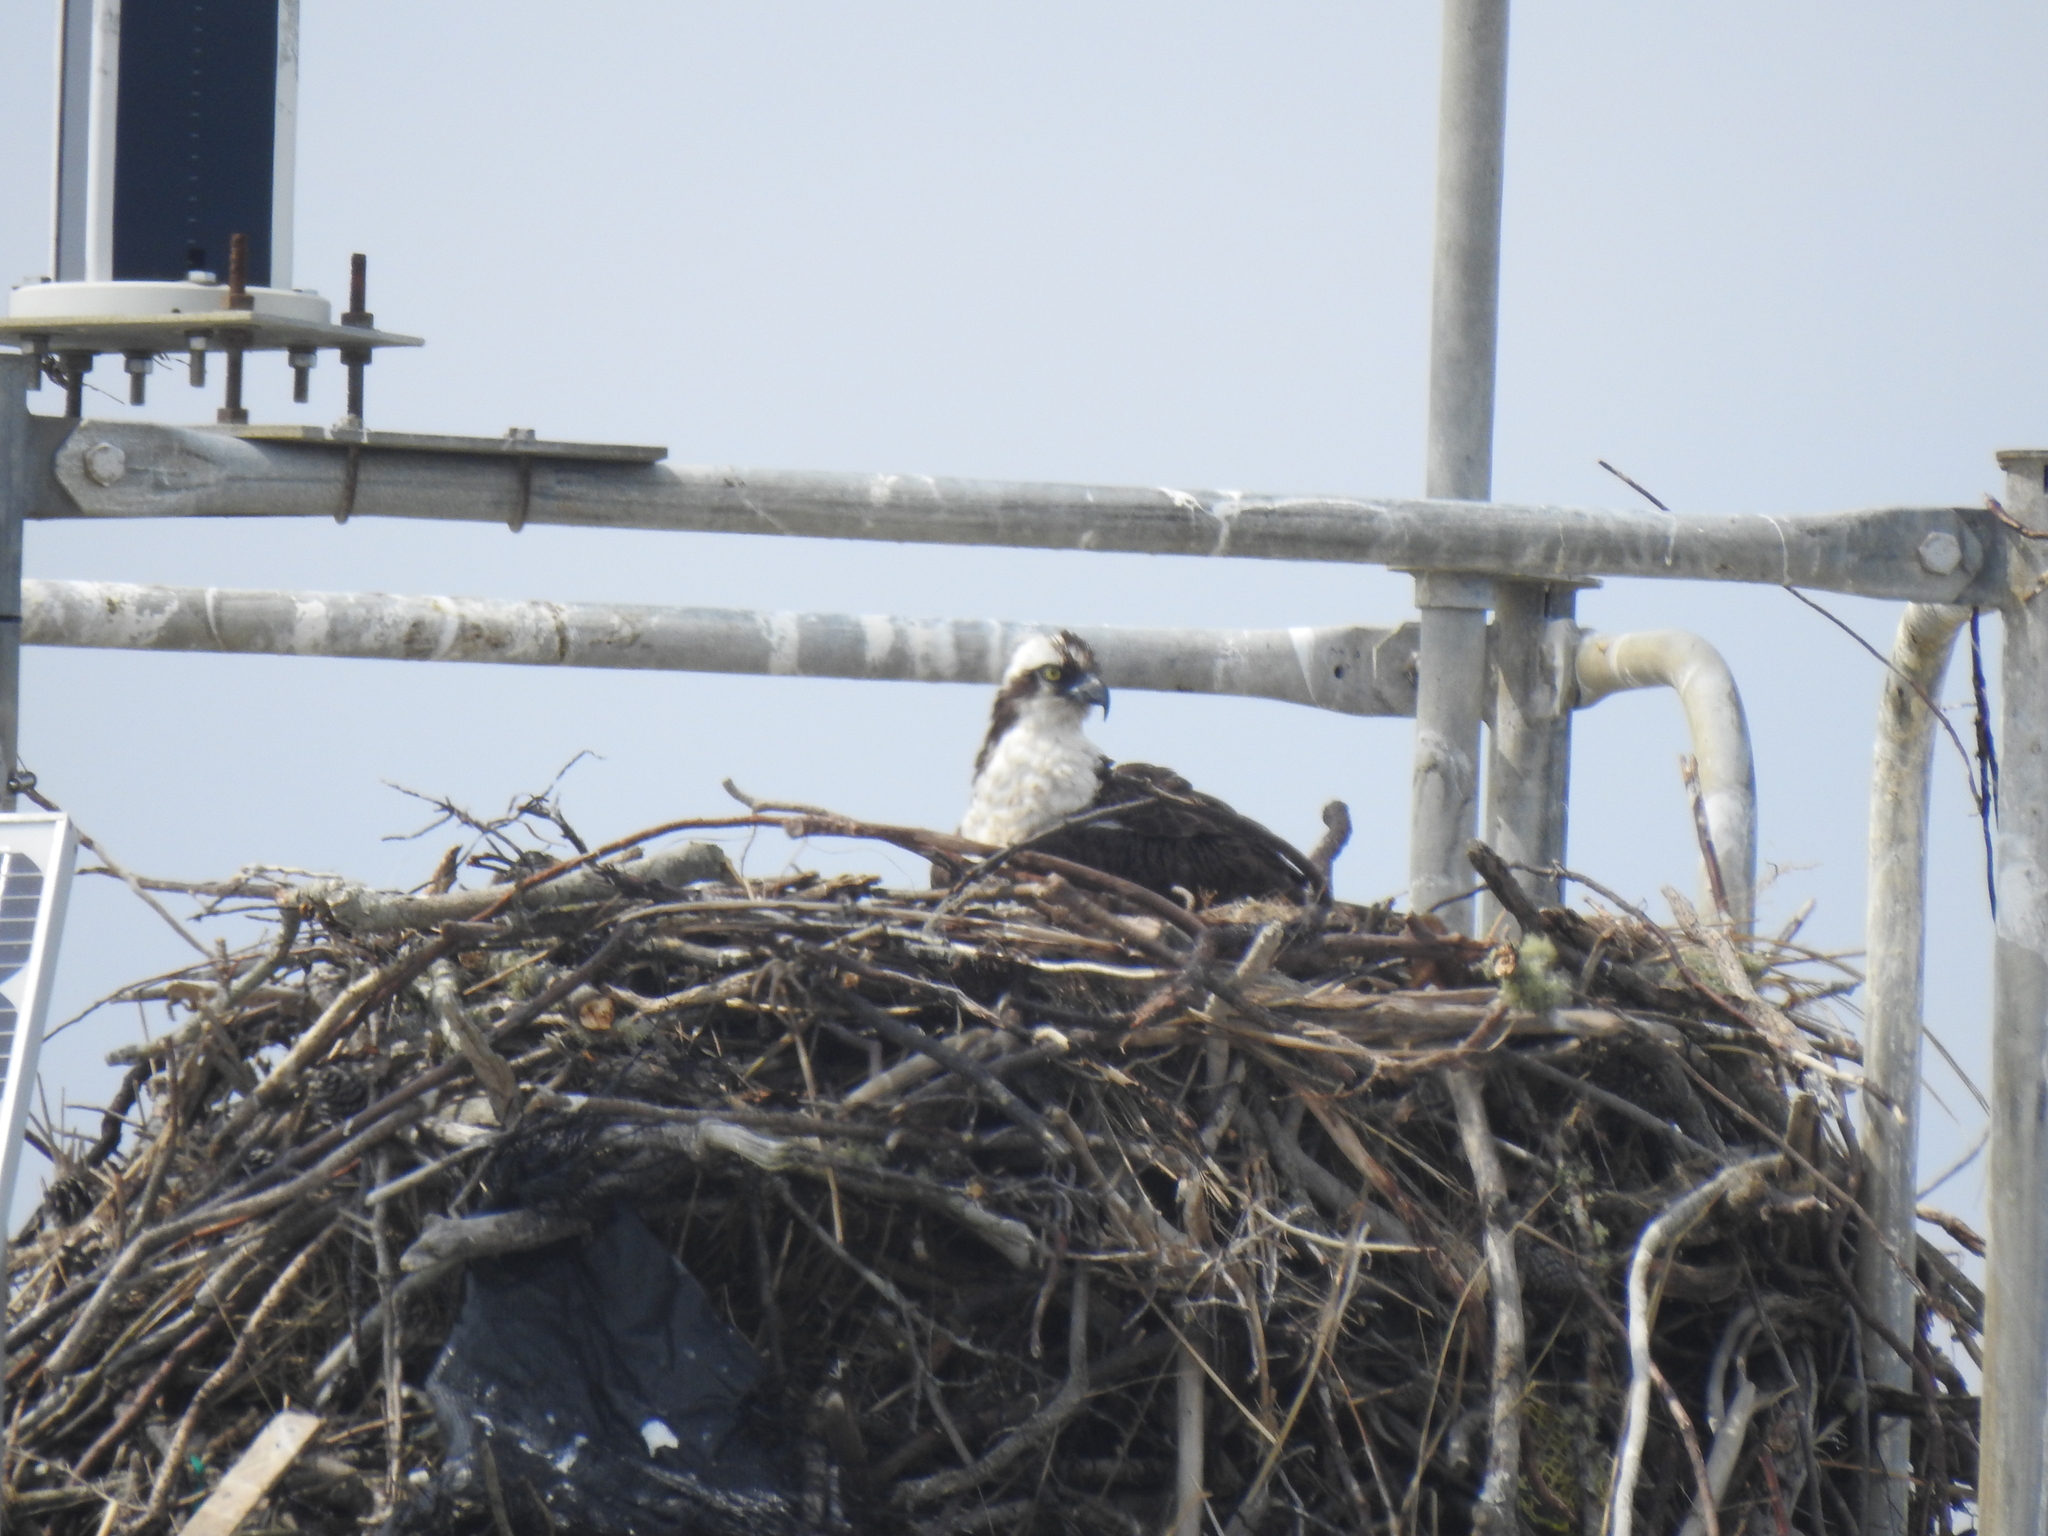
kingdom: Animalia
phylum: Chordata
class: Aves
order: Accipitriformes
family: Pandionidae
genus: Pandion
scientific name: Pandion haliaetus
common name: Osprey
